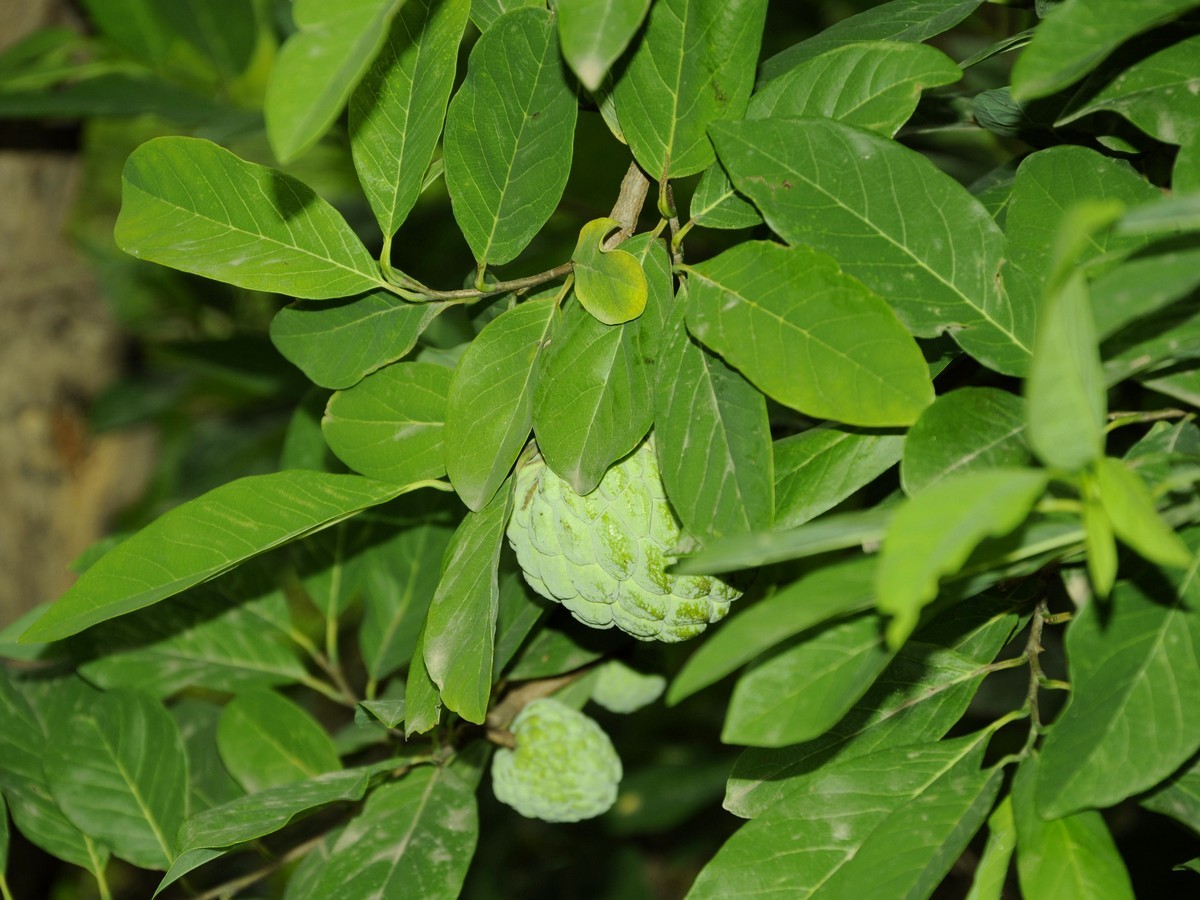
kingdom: Plantae
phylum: Tracheophyta
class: Magnoliopsida
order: Magnoliales
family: Annonaceae
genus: Annona
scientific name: Annona squamosa
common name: Custard-apple
